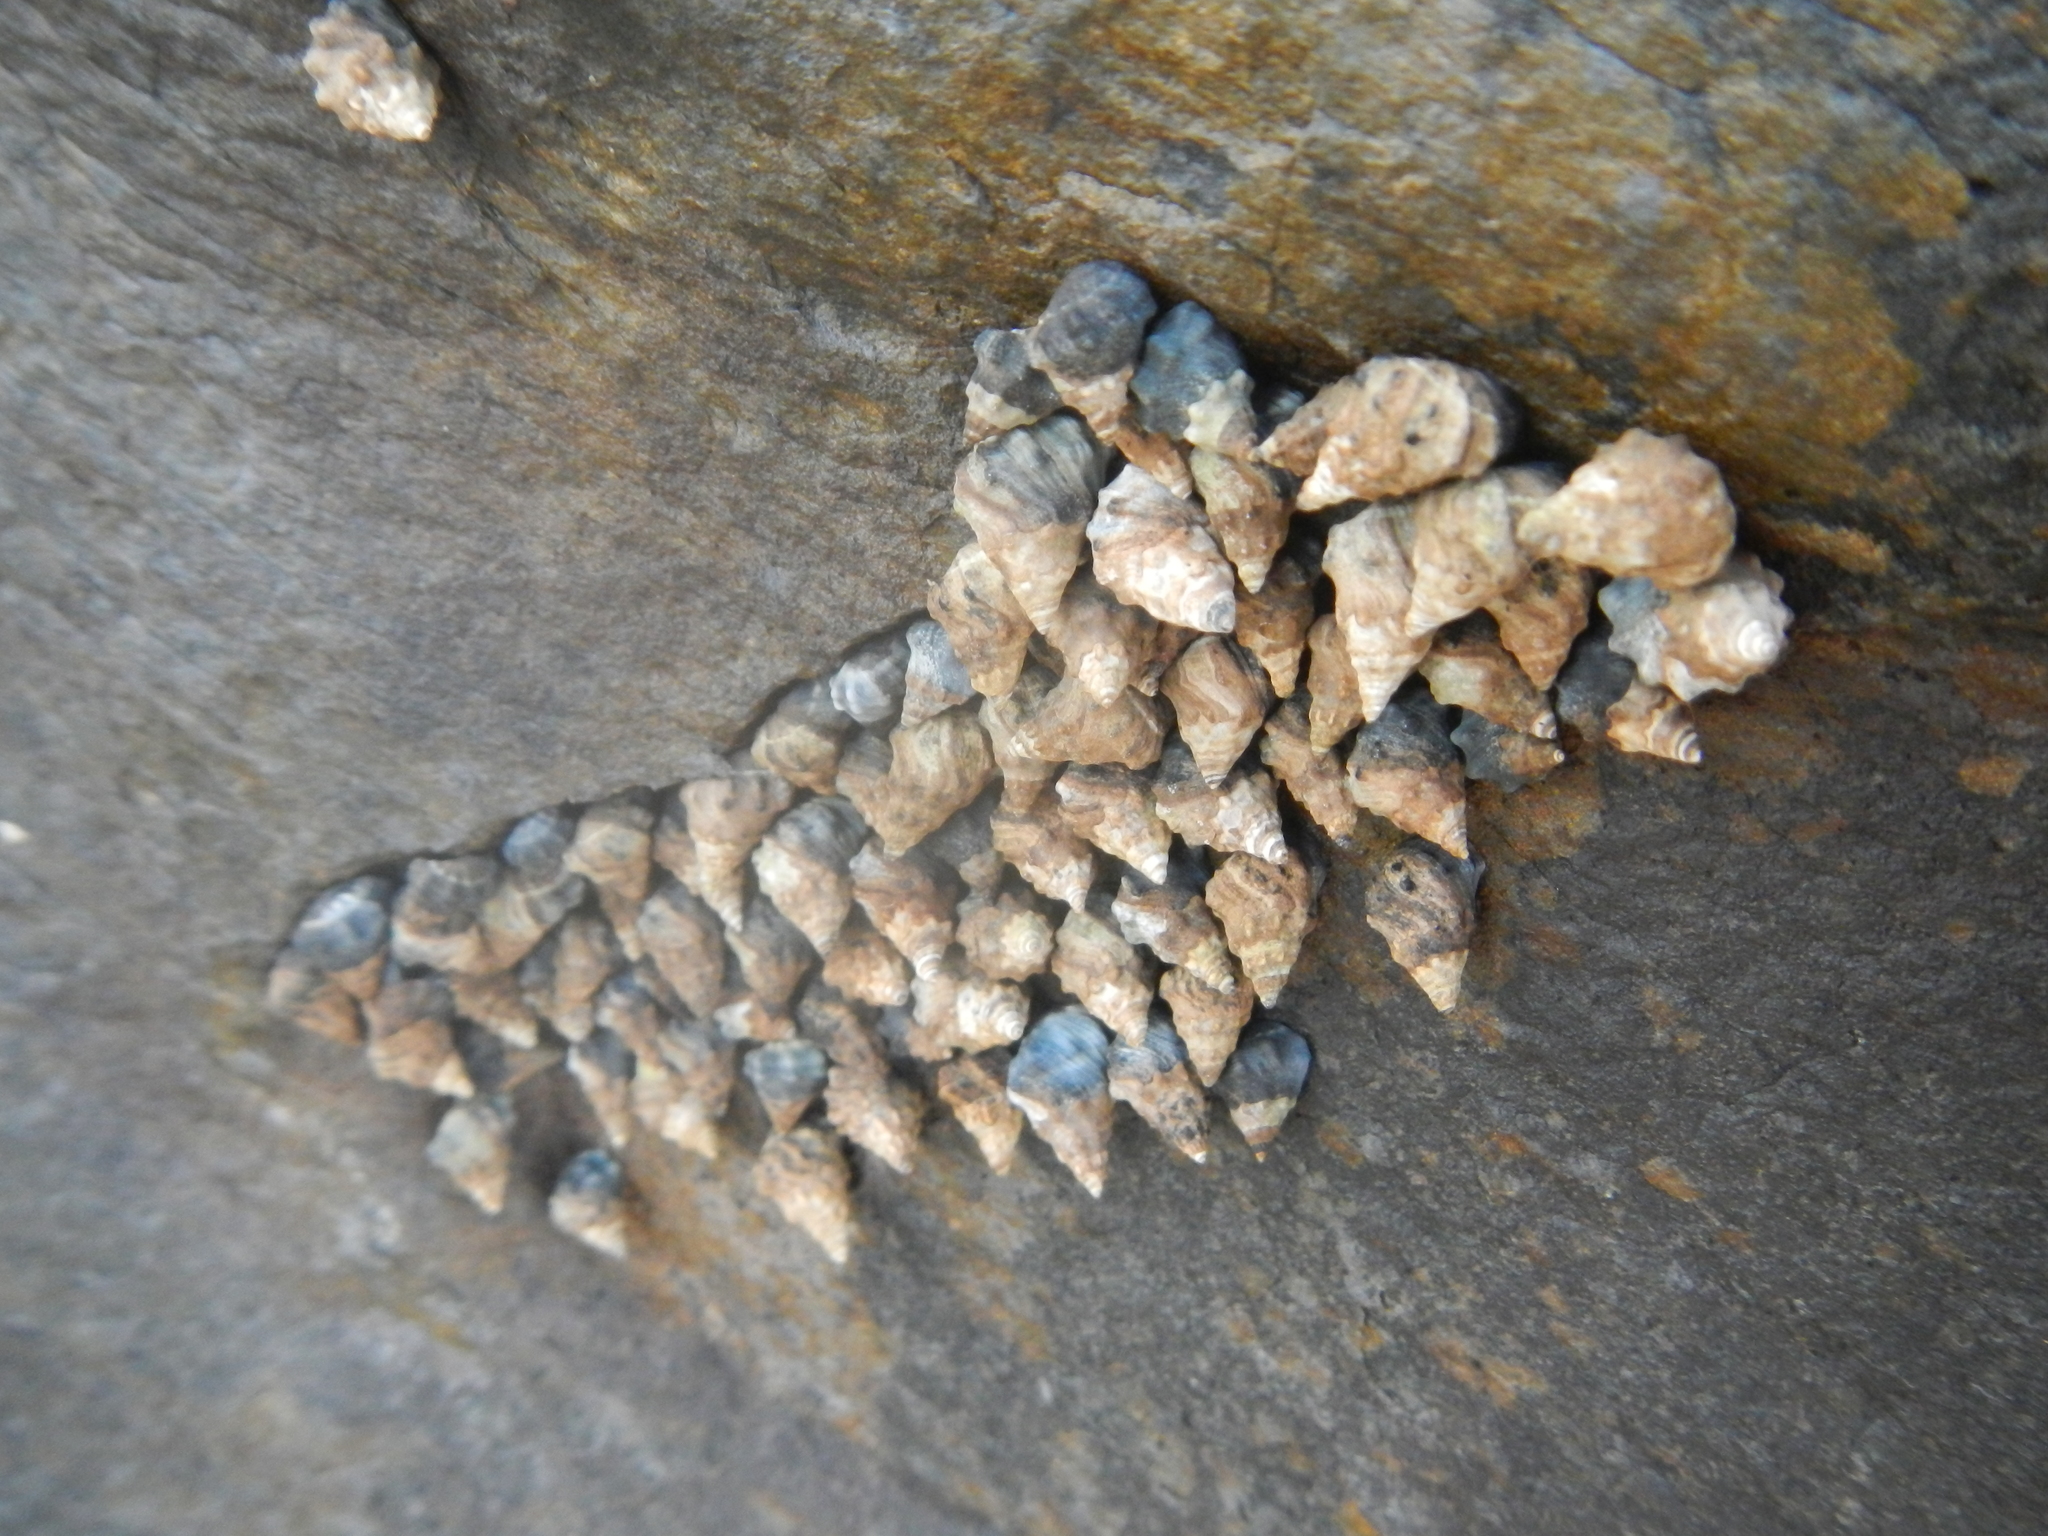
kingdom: Animalia
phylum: Mollusca
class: Gastropoda
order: Littorinimorpha
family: Littorinidae
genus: Echinolittorina
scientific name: Echinolittorina pascua
